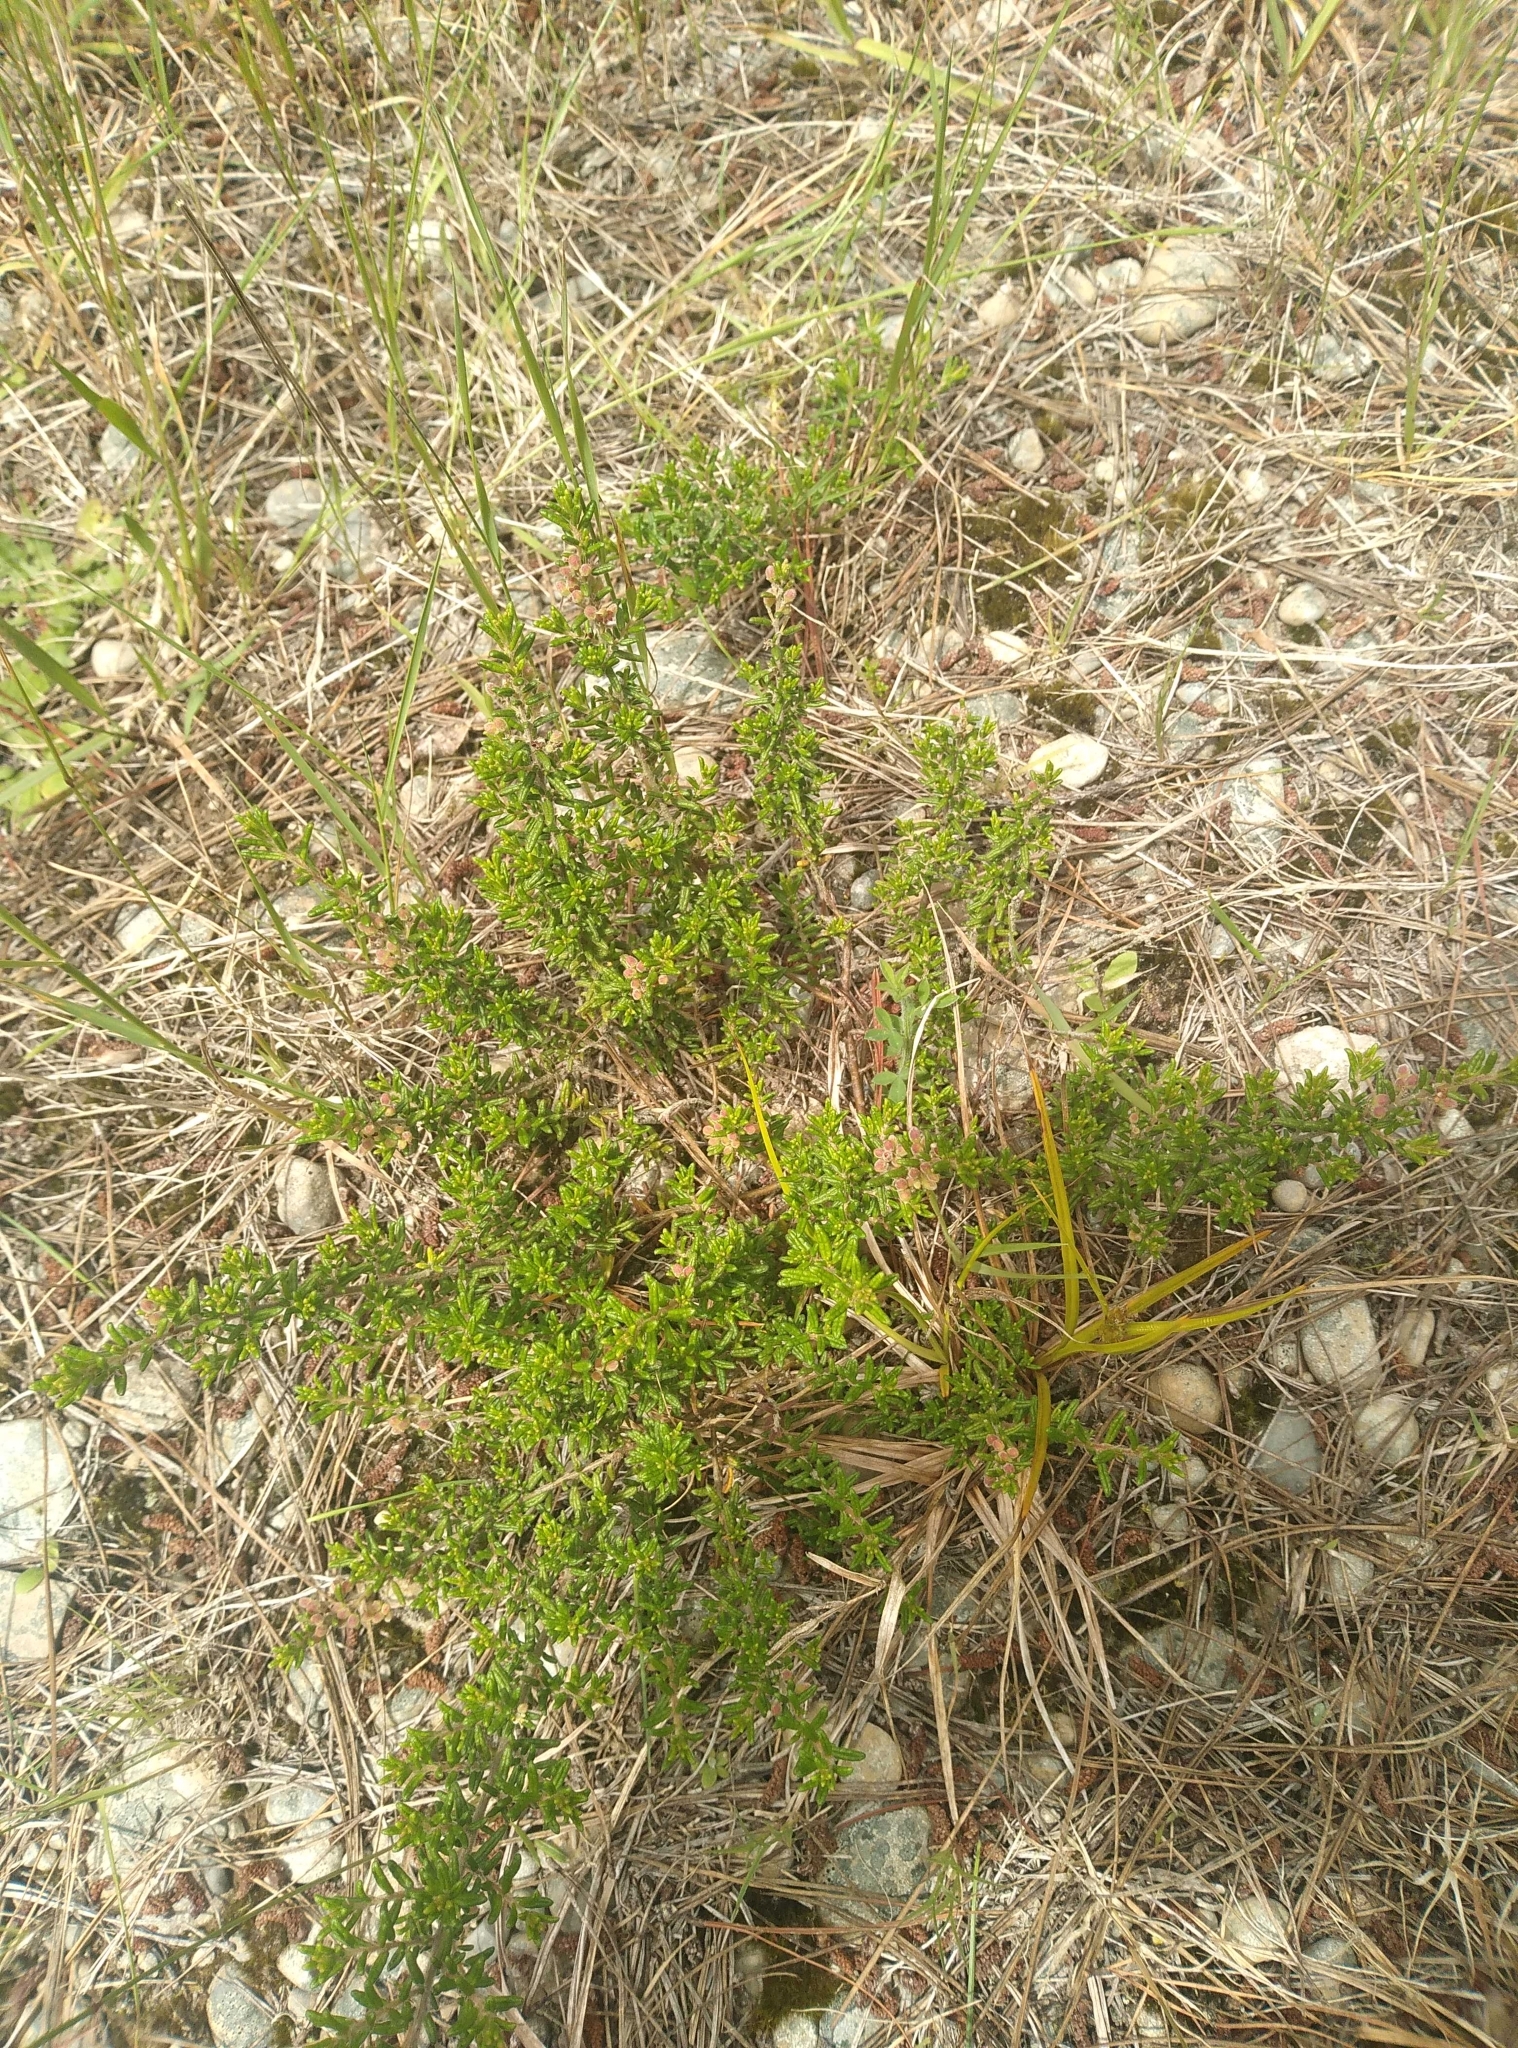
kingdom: Plantae
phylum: Tracheophyta
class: Magnoliopsida
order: Rosales
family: Rhamnaceae
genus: Pomaderris
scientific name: Pomaderris amoena
